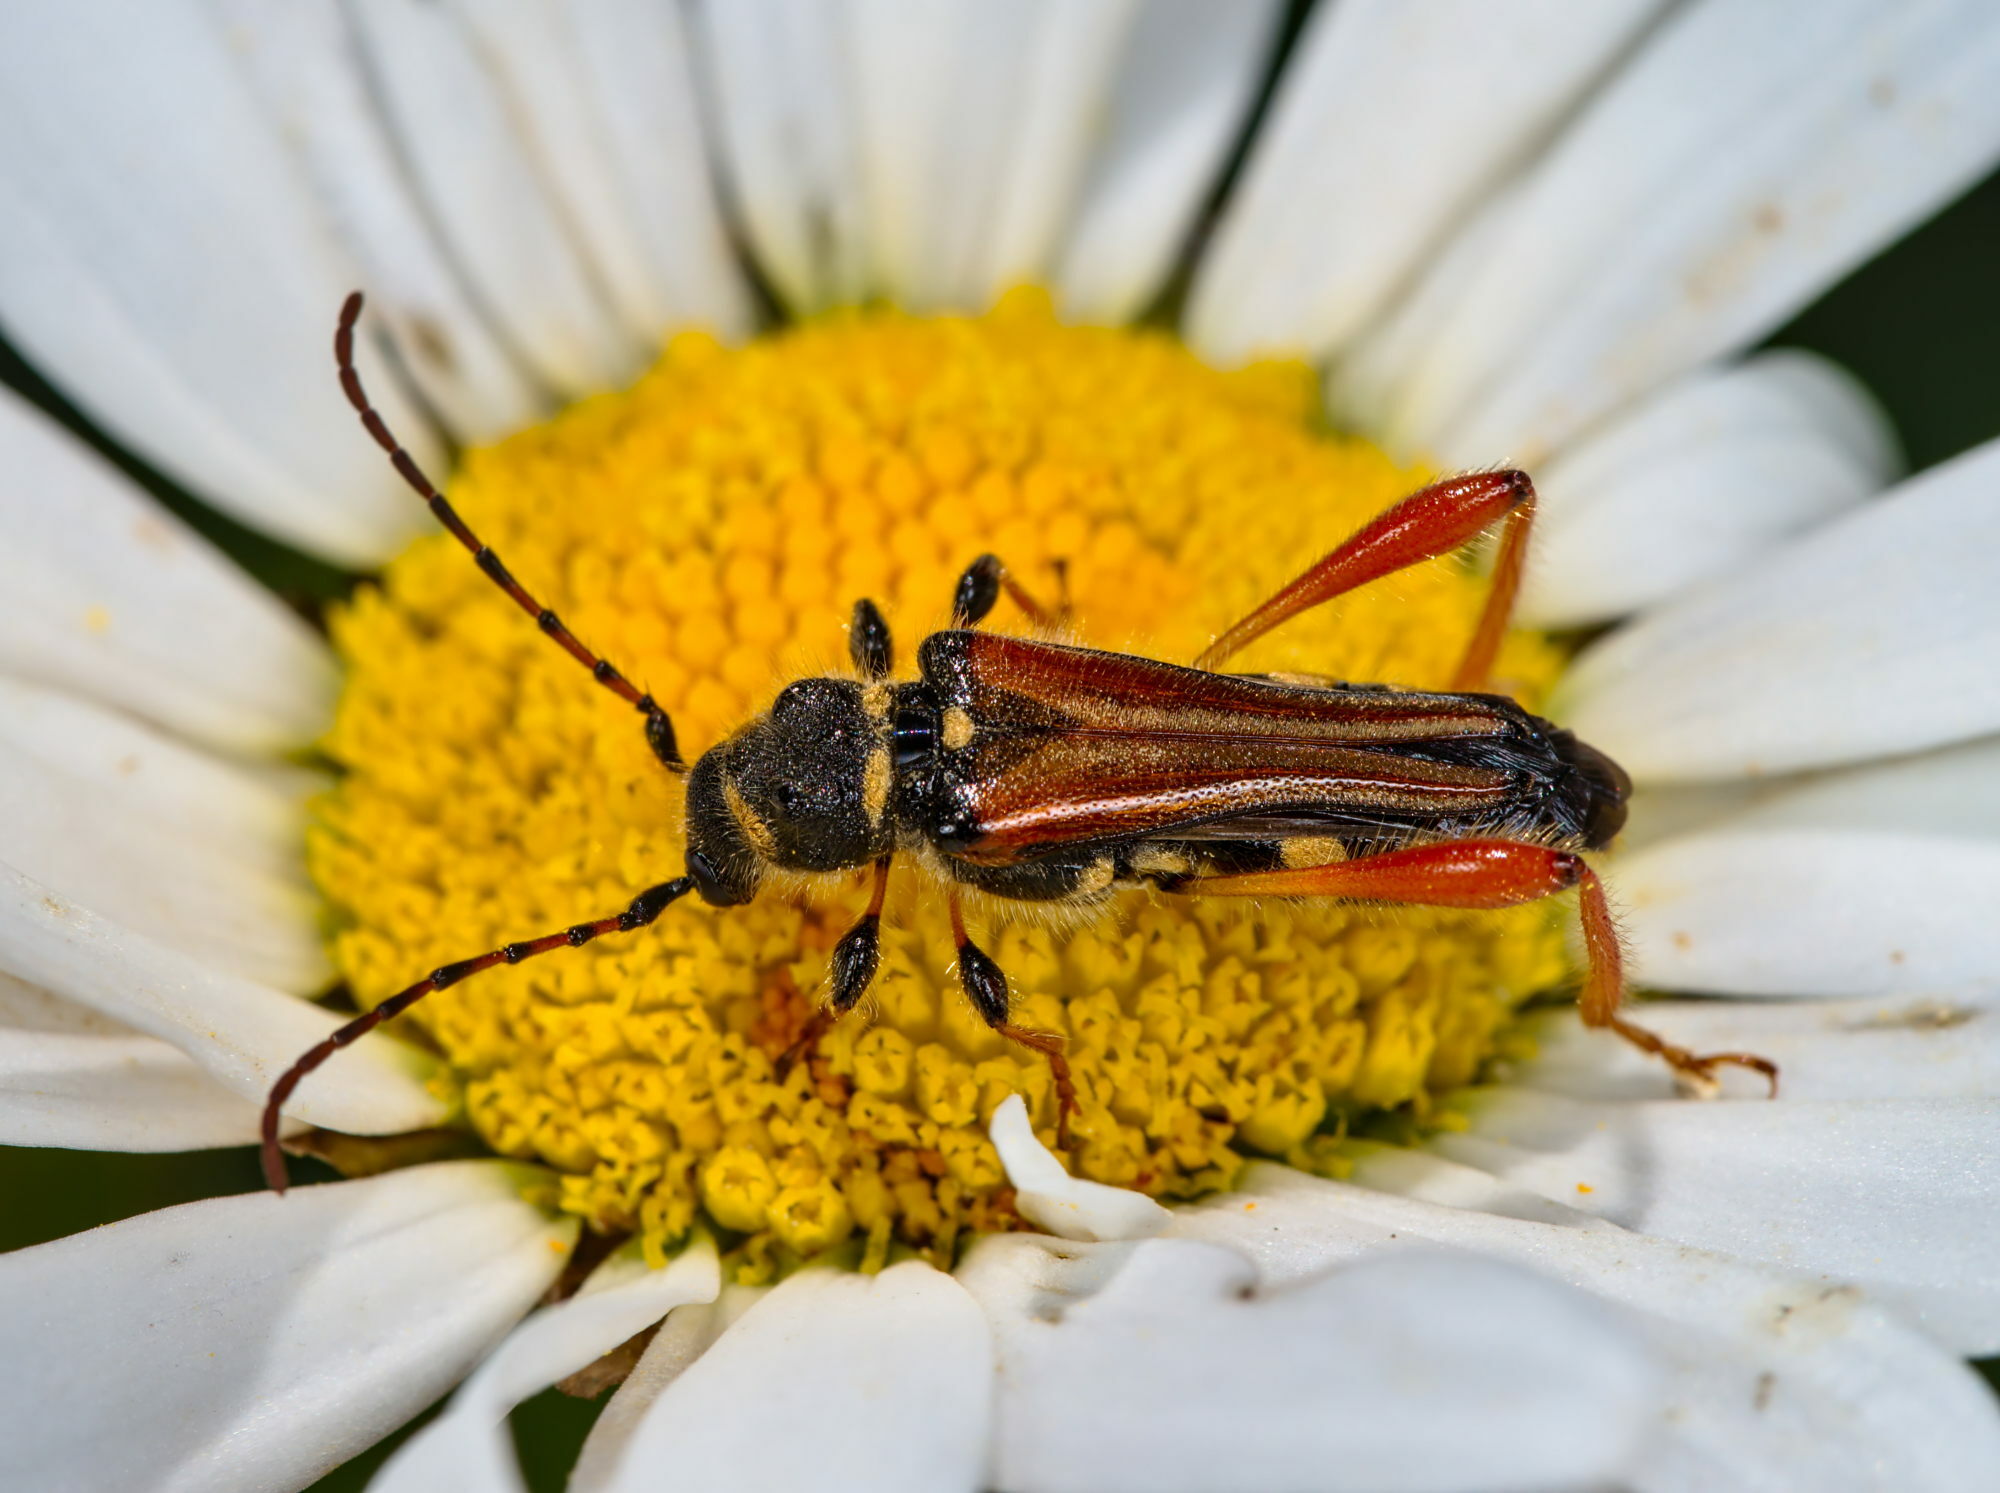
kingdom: Animalia
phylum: Arthropoda
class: Insecta
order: Coleoptera
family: Cerambycidae
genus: Stenopterus
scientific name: Stenopterus rufus
